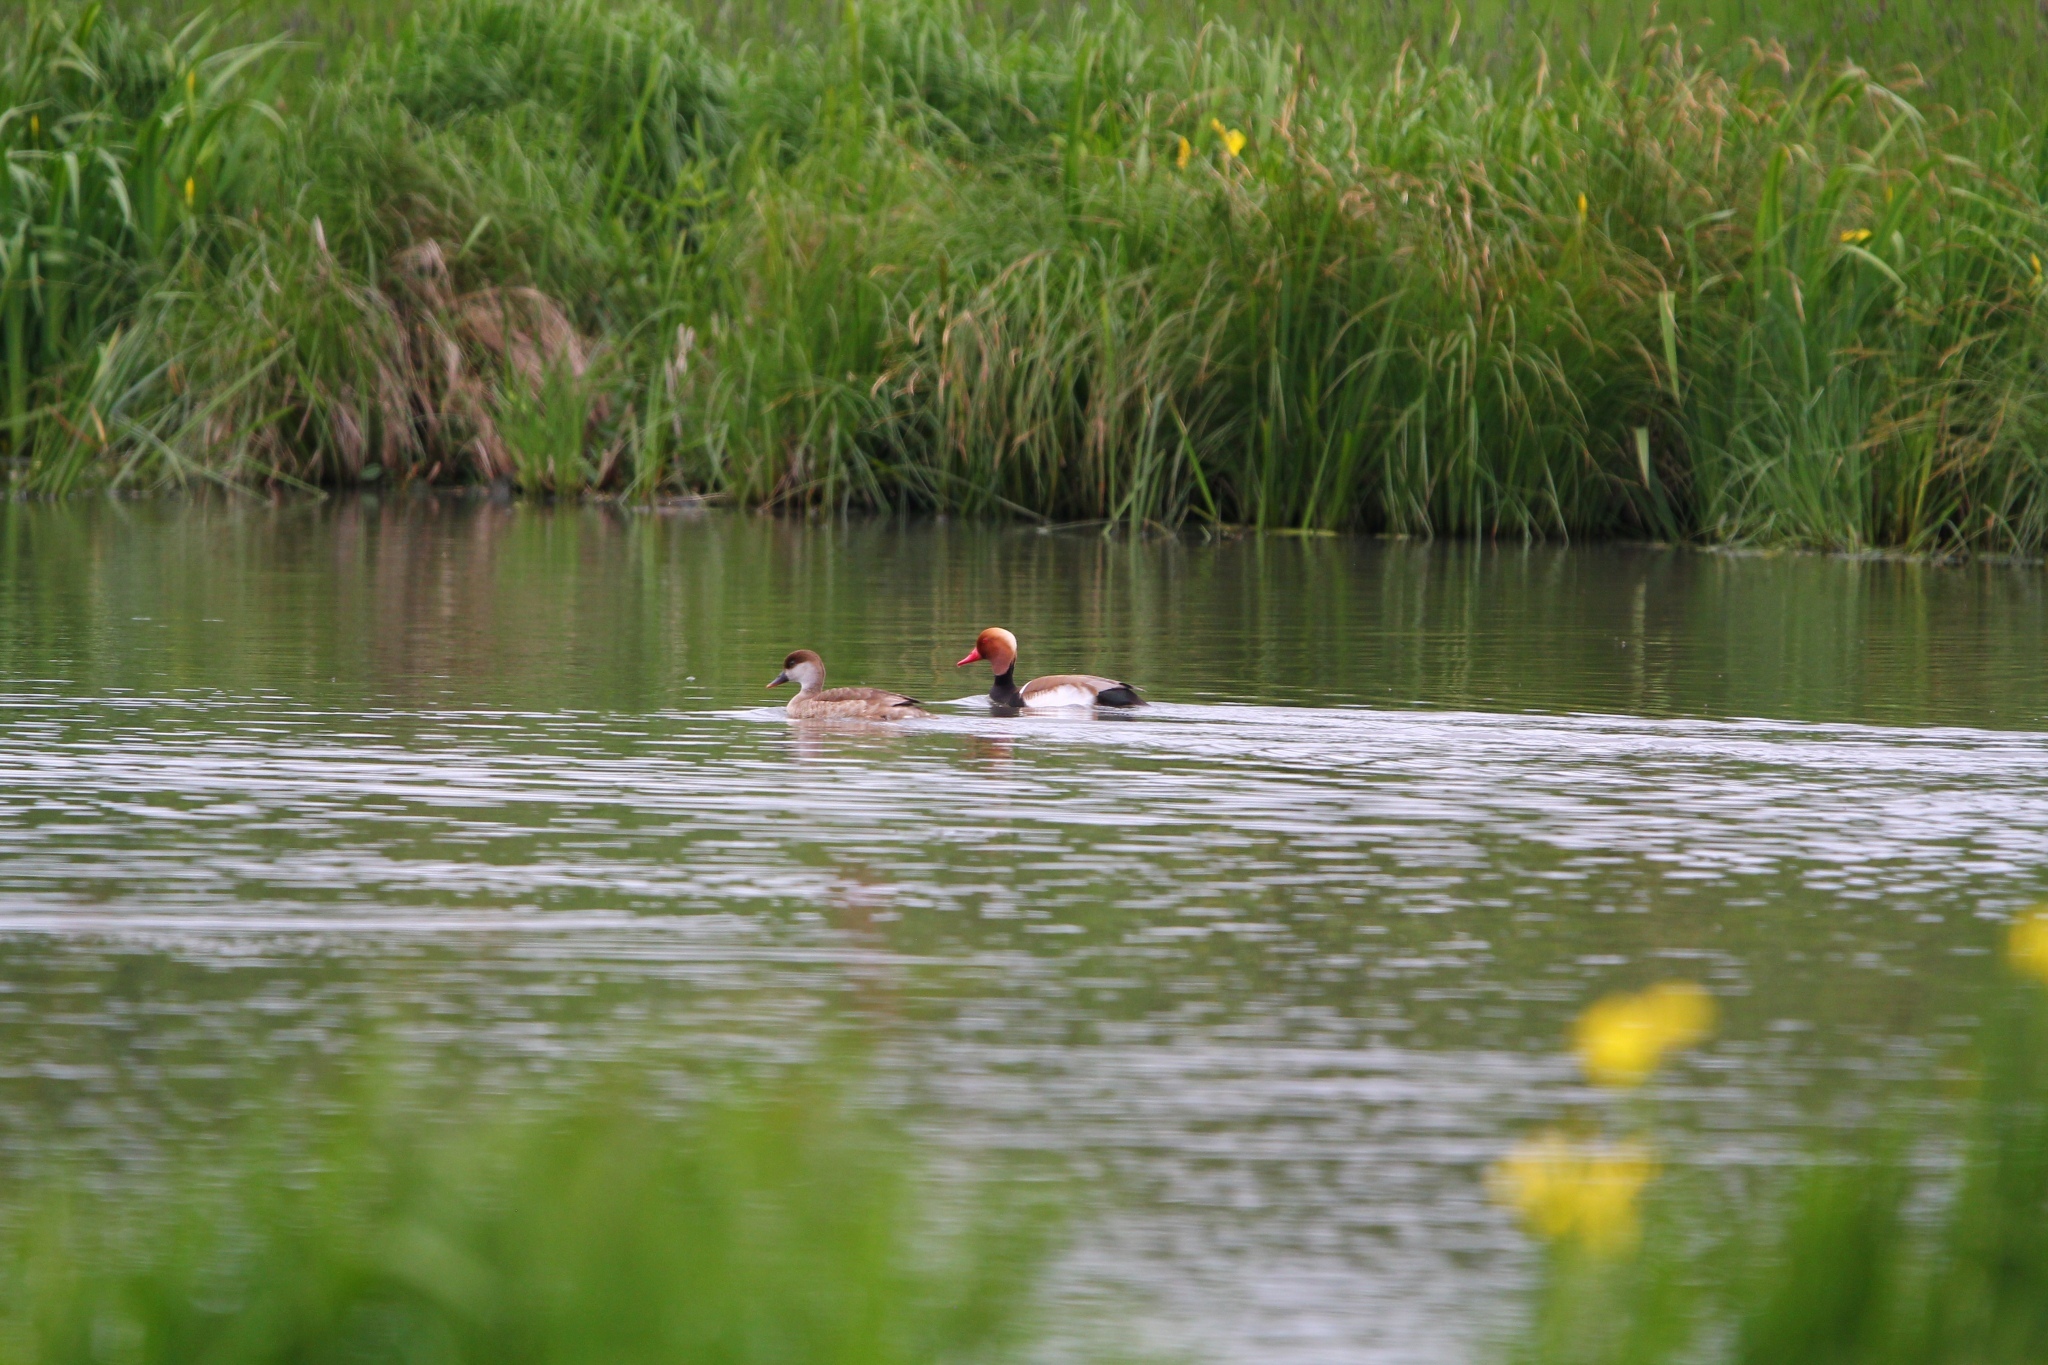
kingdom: Animalia
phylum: Chordata
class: Aves
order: Anseriformes
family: Anatidae
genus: Netta
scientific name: Netta rufina
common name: Red-crested pochard
